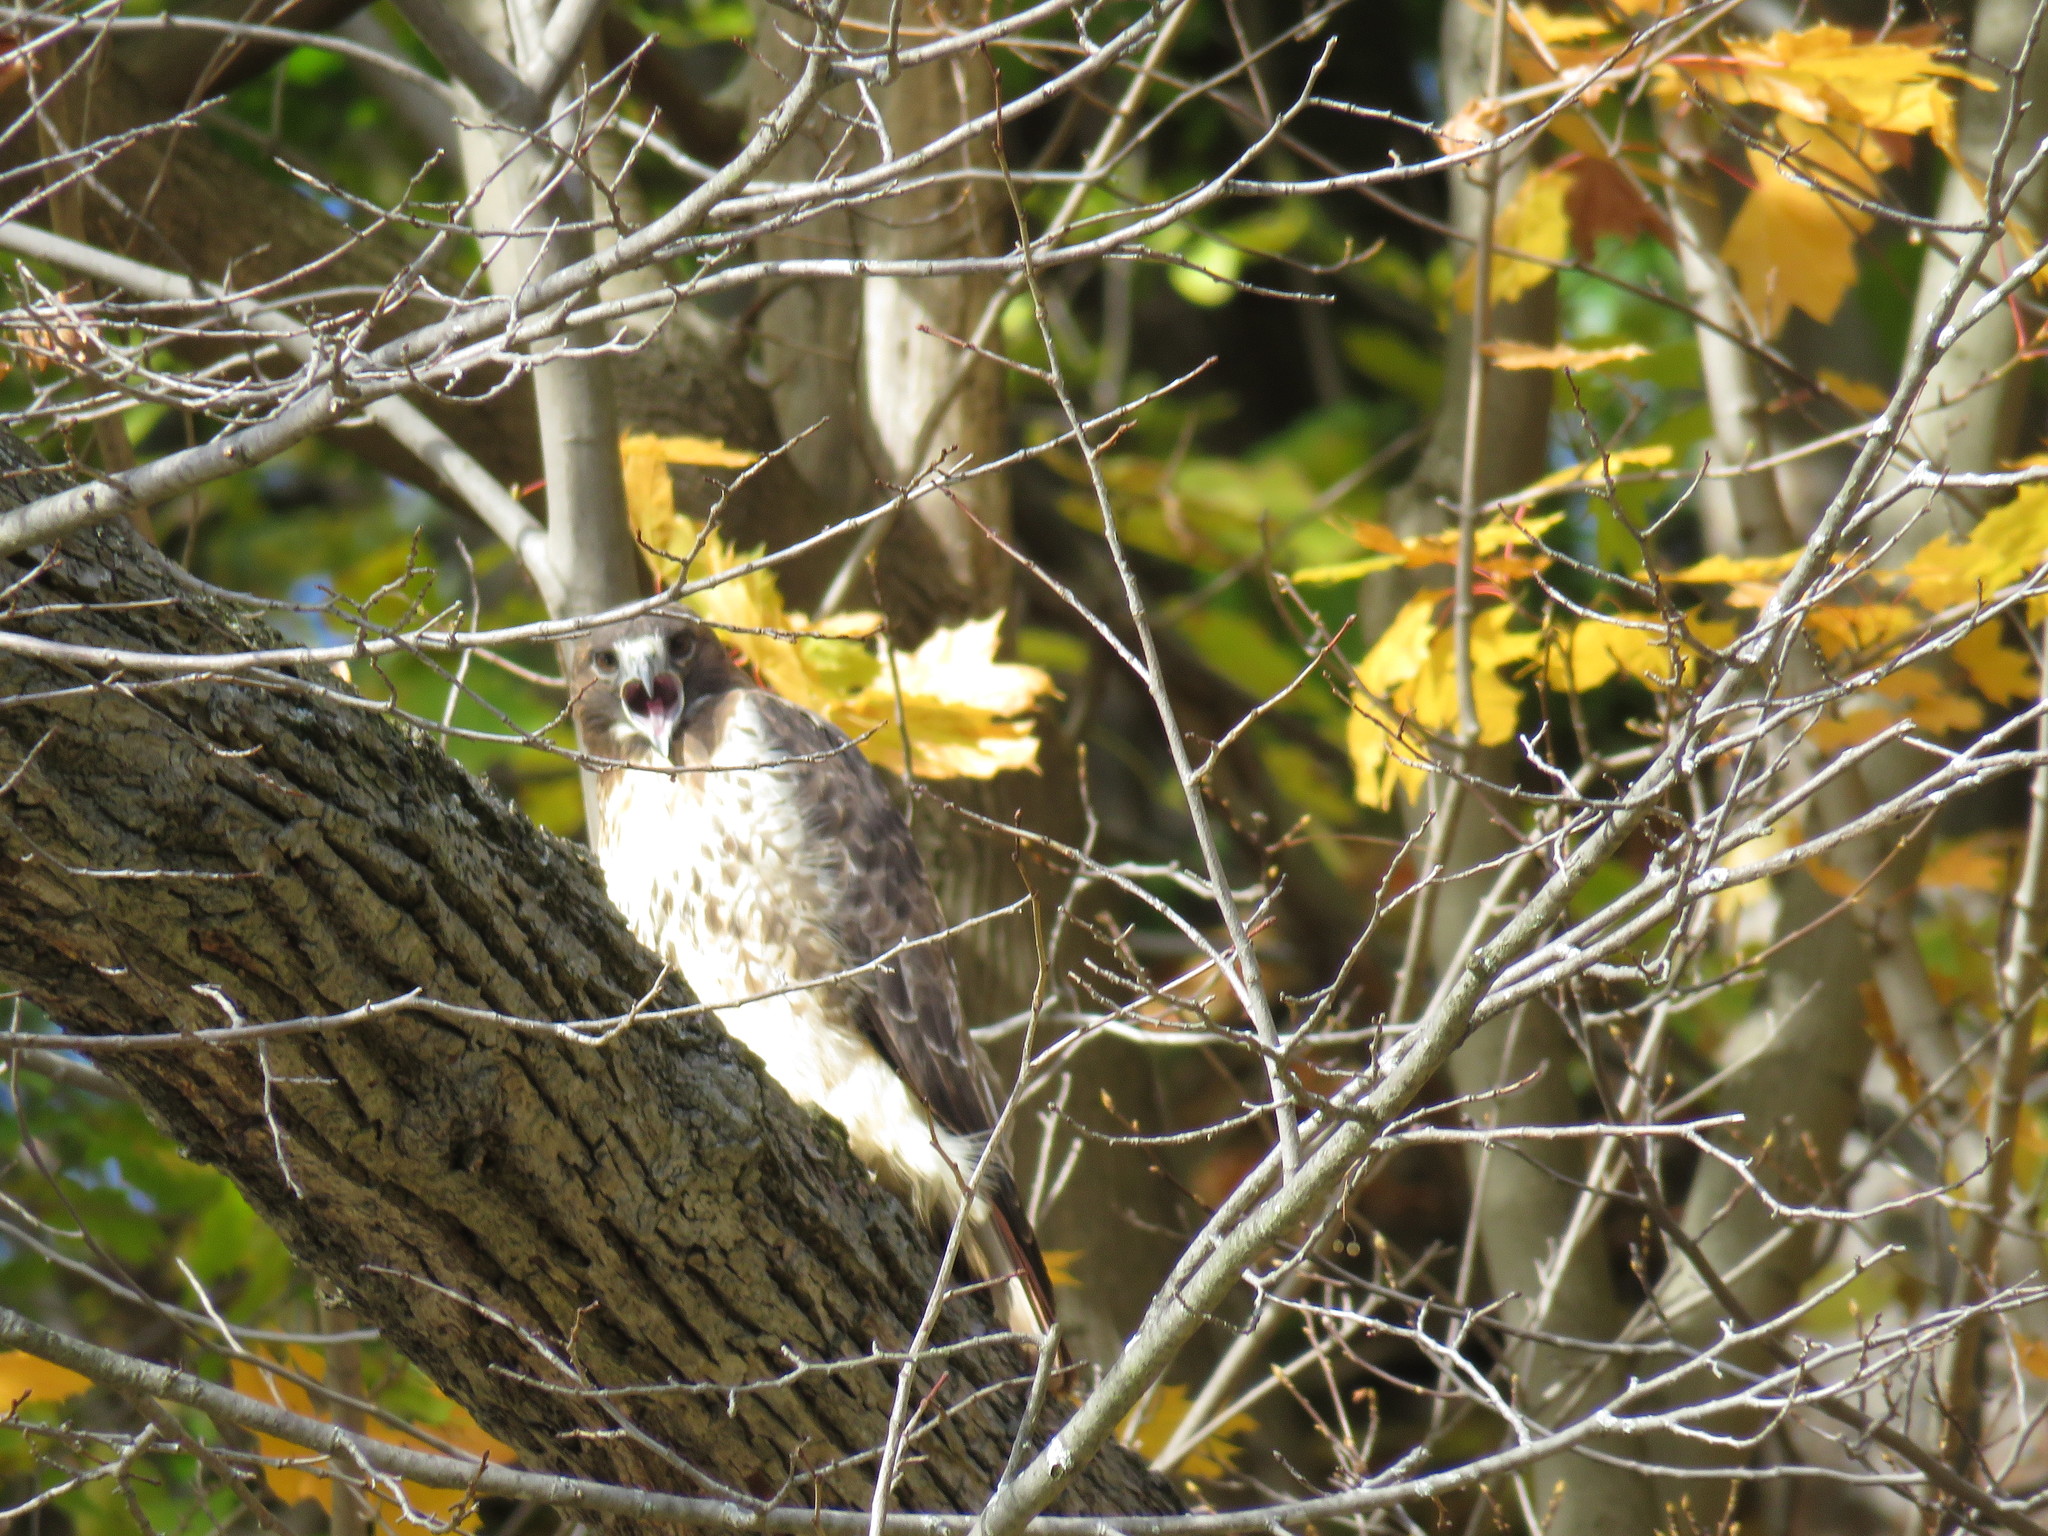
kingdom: Animalia
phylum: Chordata
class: Aves
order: Accipitriformes
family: Accipitridae
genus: Buteo
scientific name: Buteo jamaicensis
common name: Red-tailed hawk
